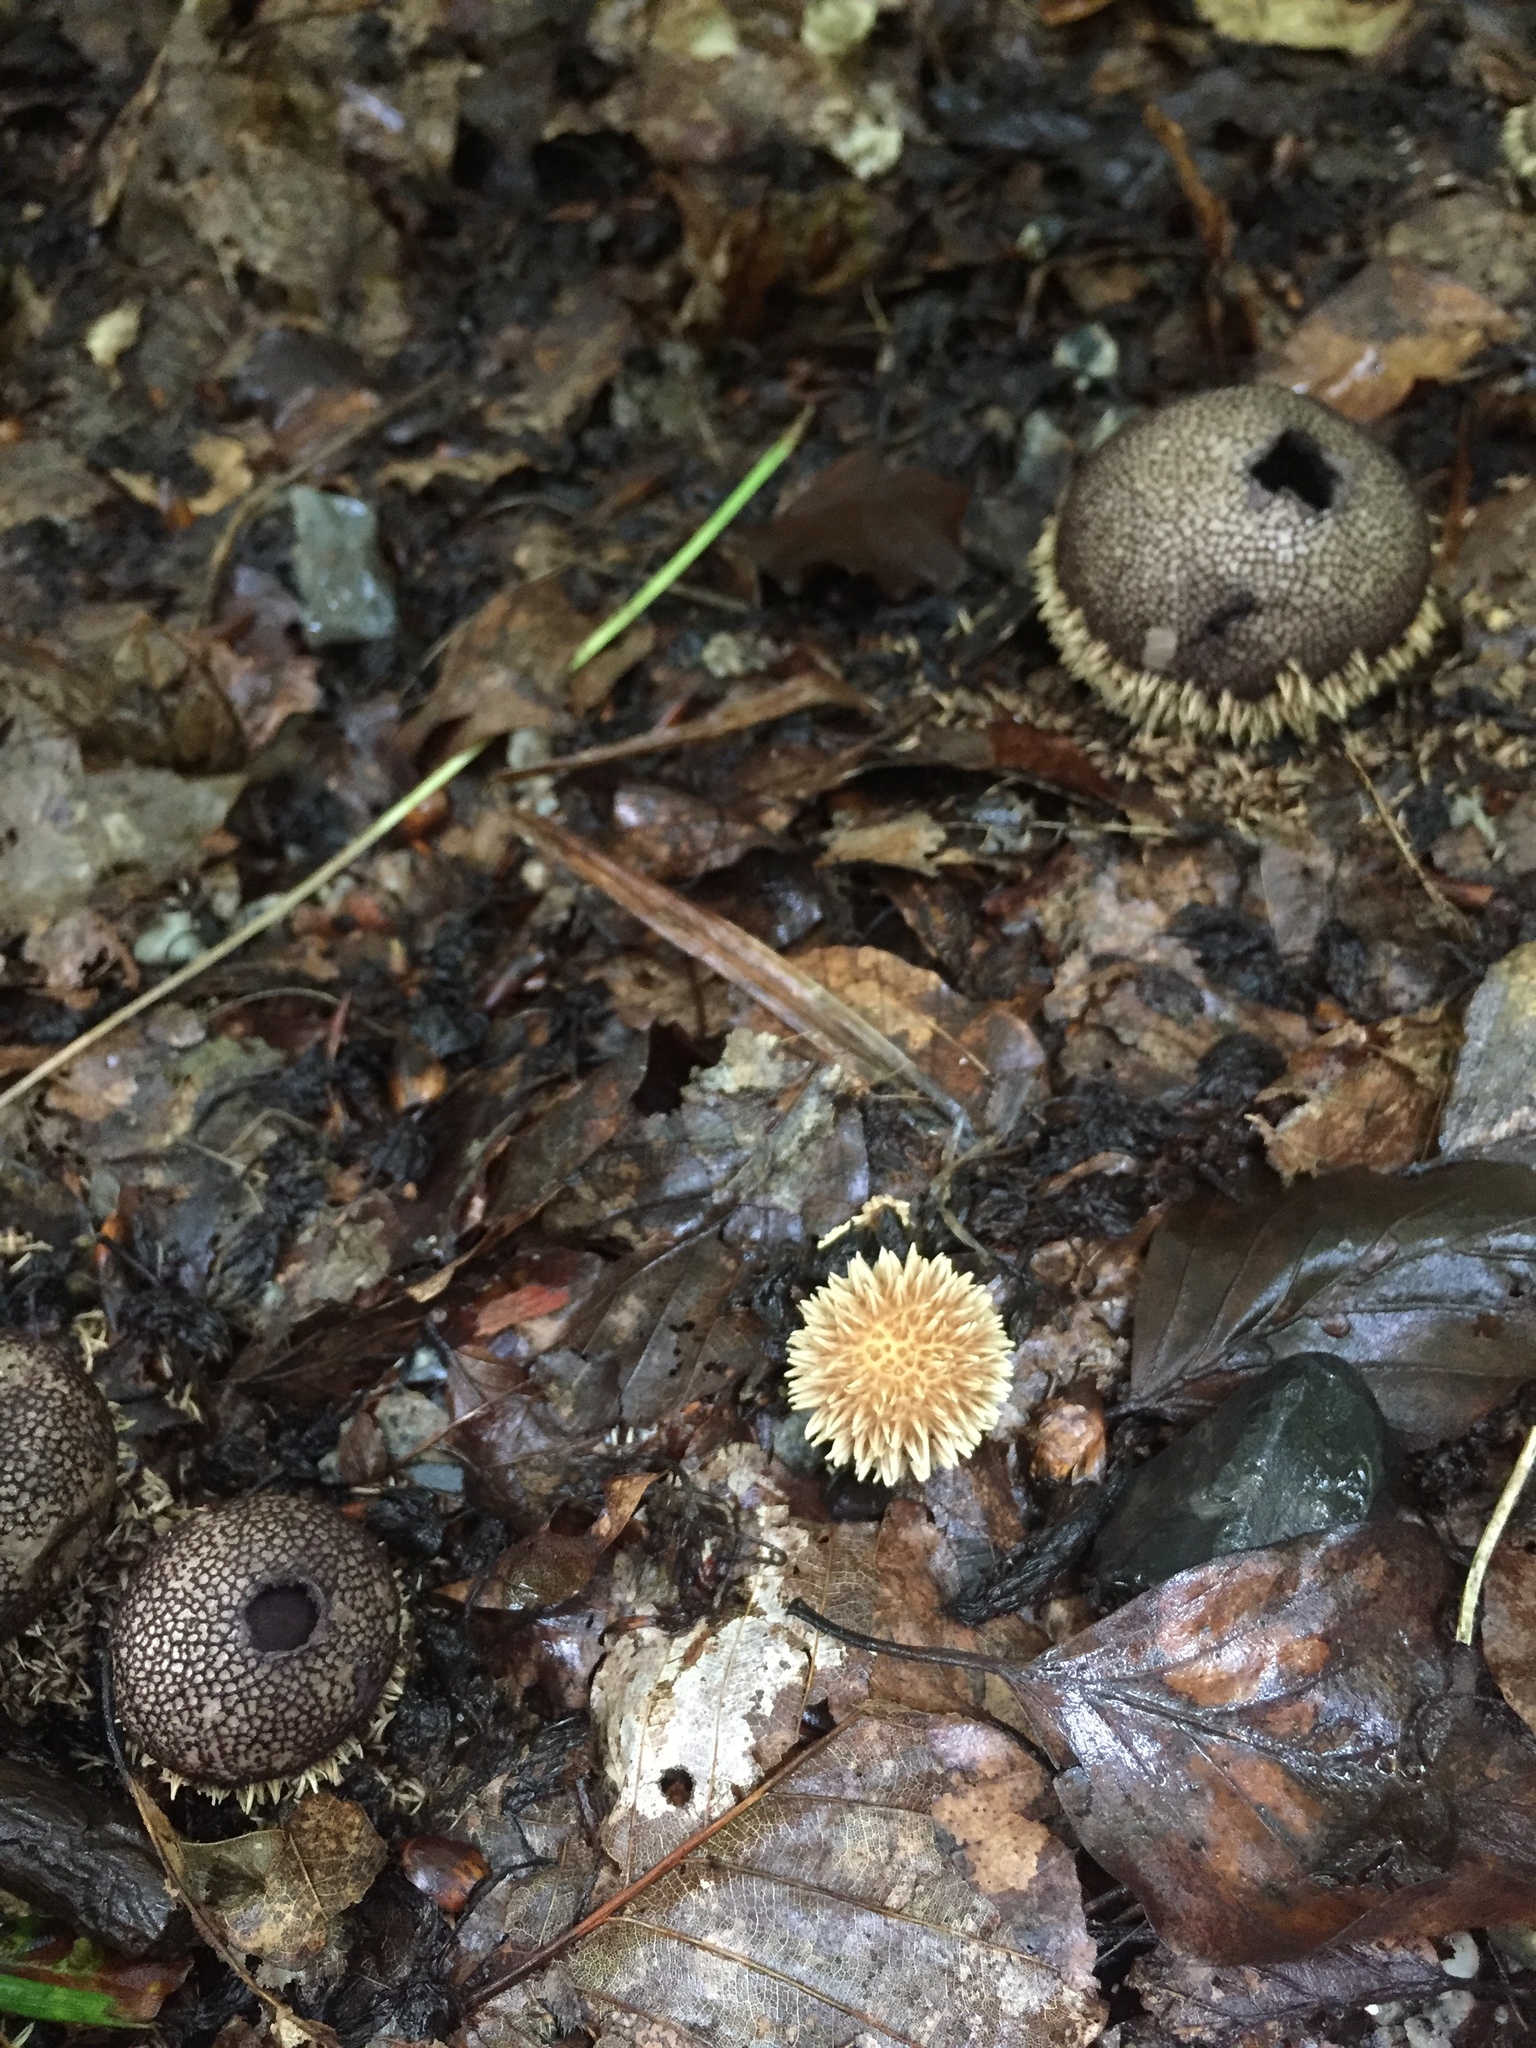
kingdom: Fungi
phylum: Basidiomycota
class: Agaricomycetes
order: Agaricales
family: Lycoperdaceae
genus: Lycoperdon
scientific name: Lycoperdon echinatum
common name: Hedgehog puffball
